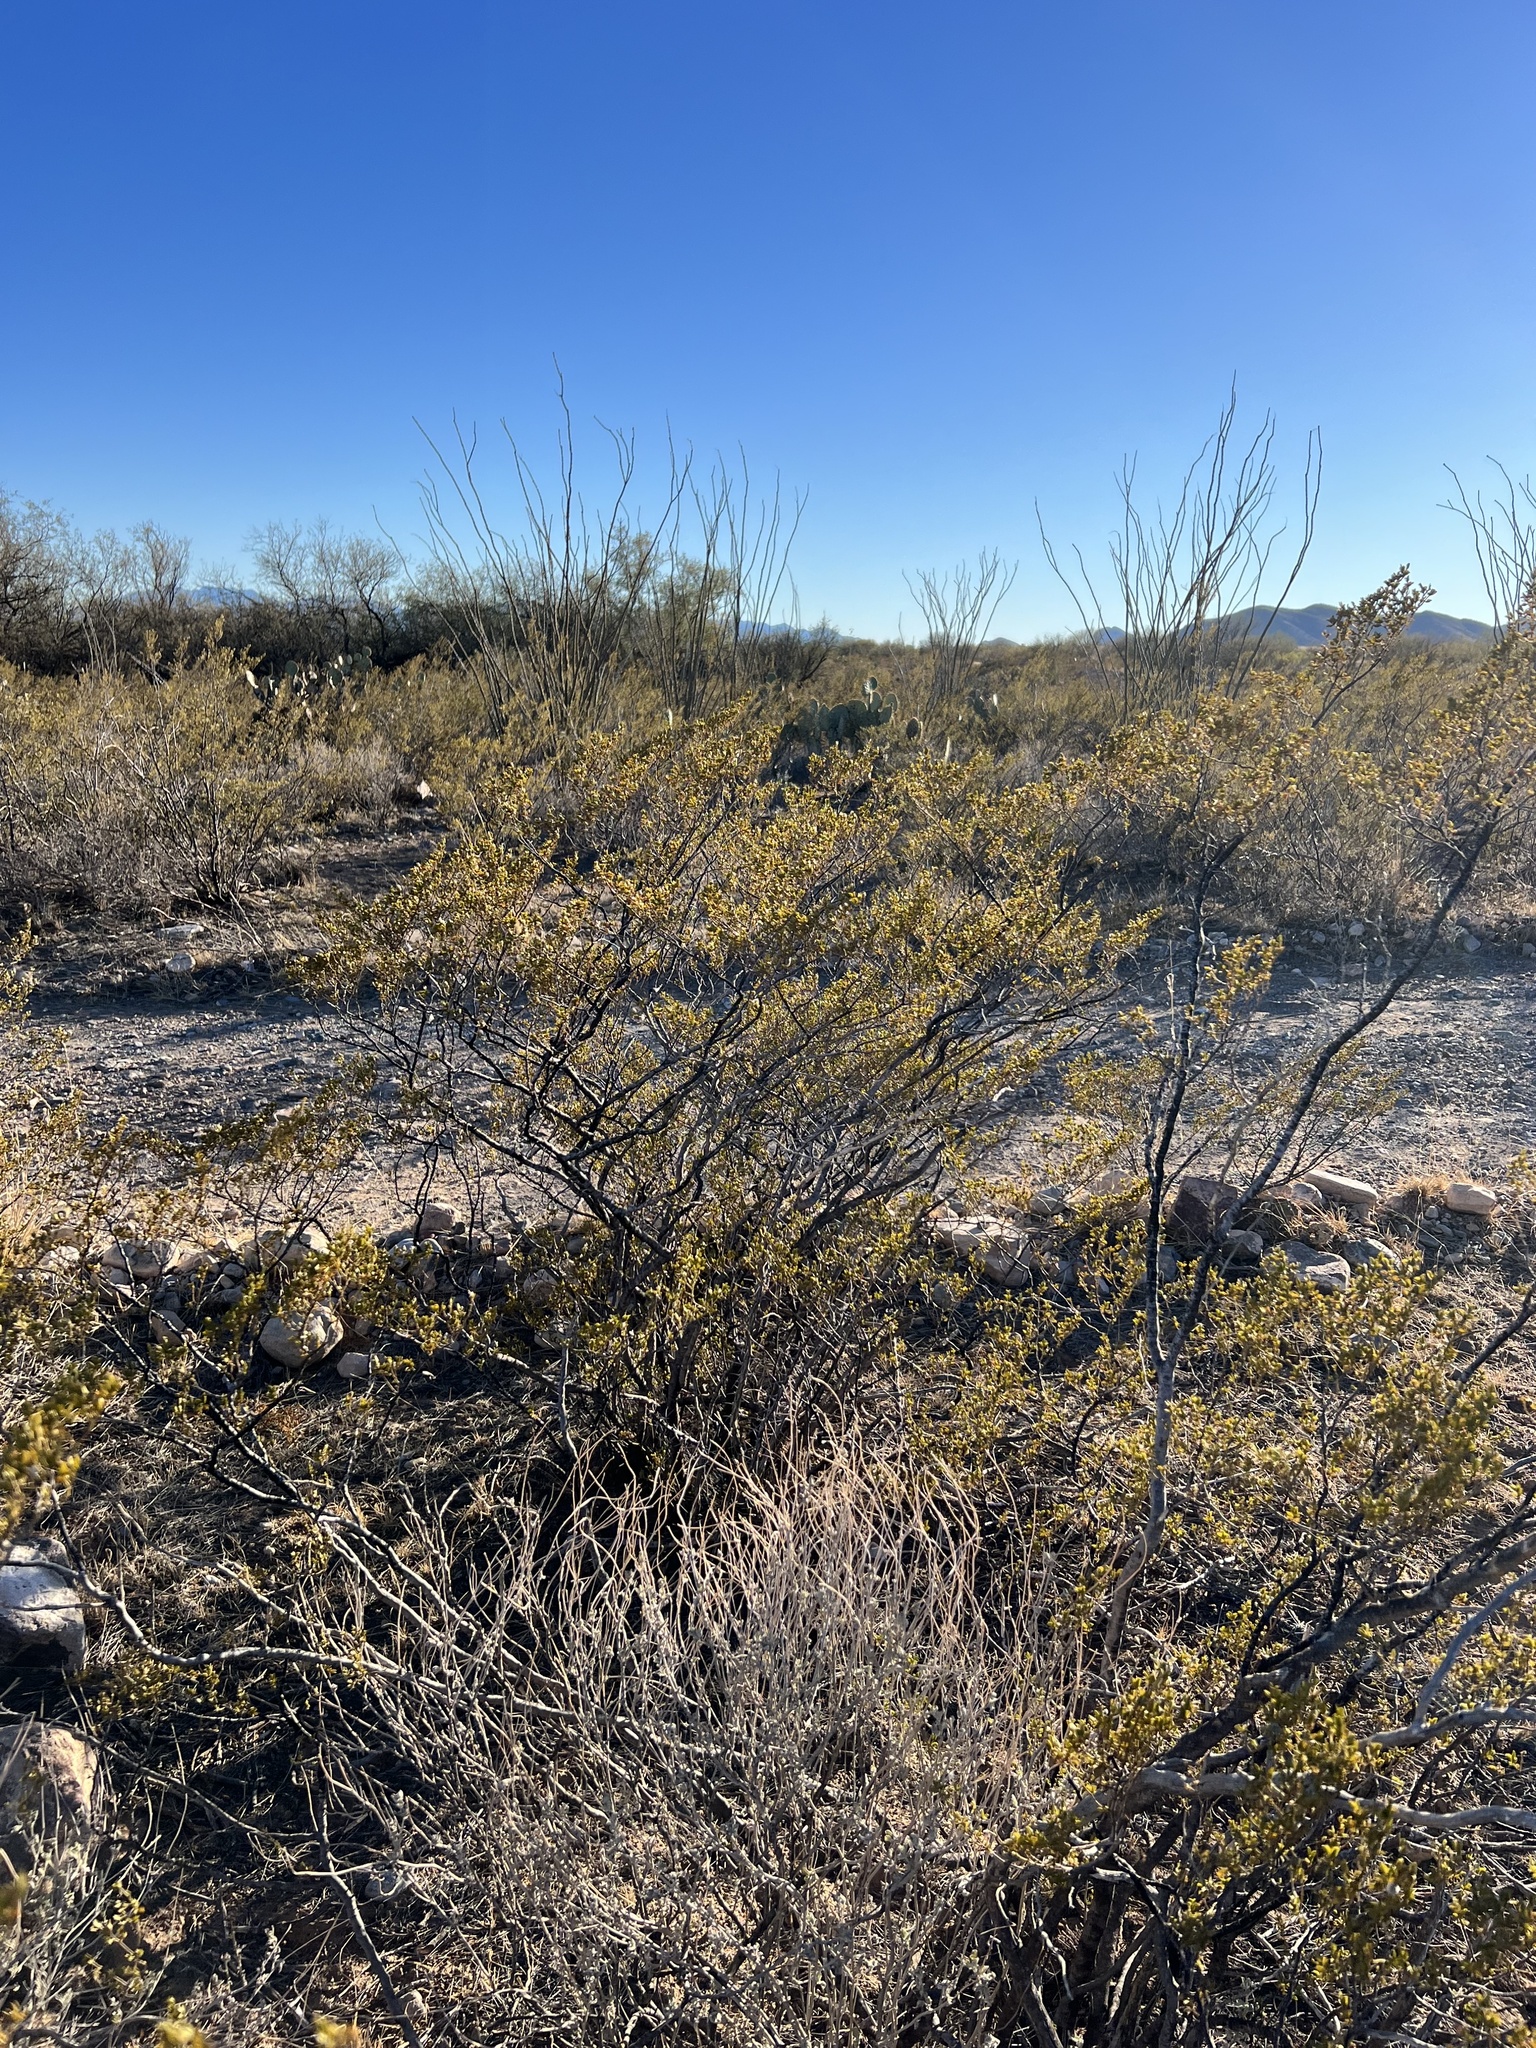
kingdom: Plantae
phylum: Tracheophyta
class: Magnoliopsida
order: Zygophyllales
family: Zygophyllaceae
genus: Larrea
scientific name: Larrea tridentata
